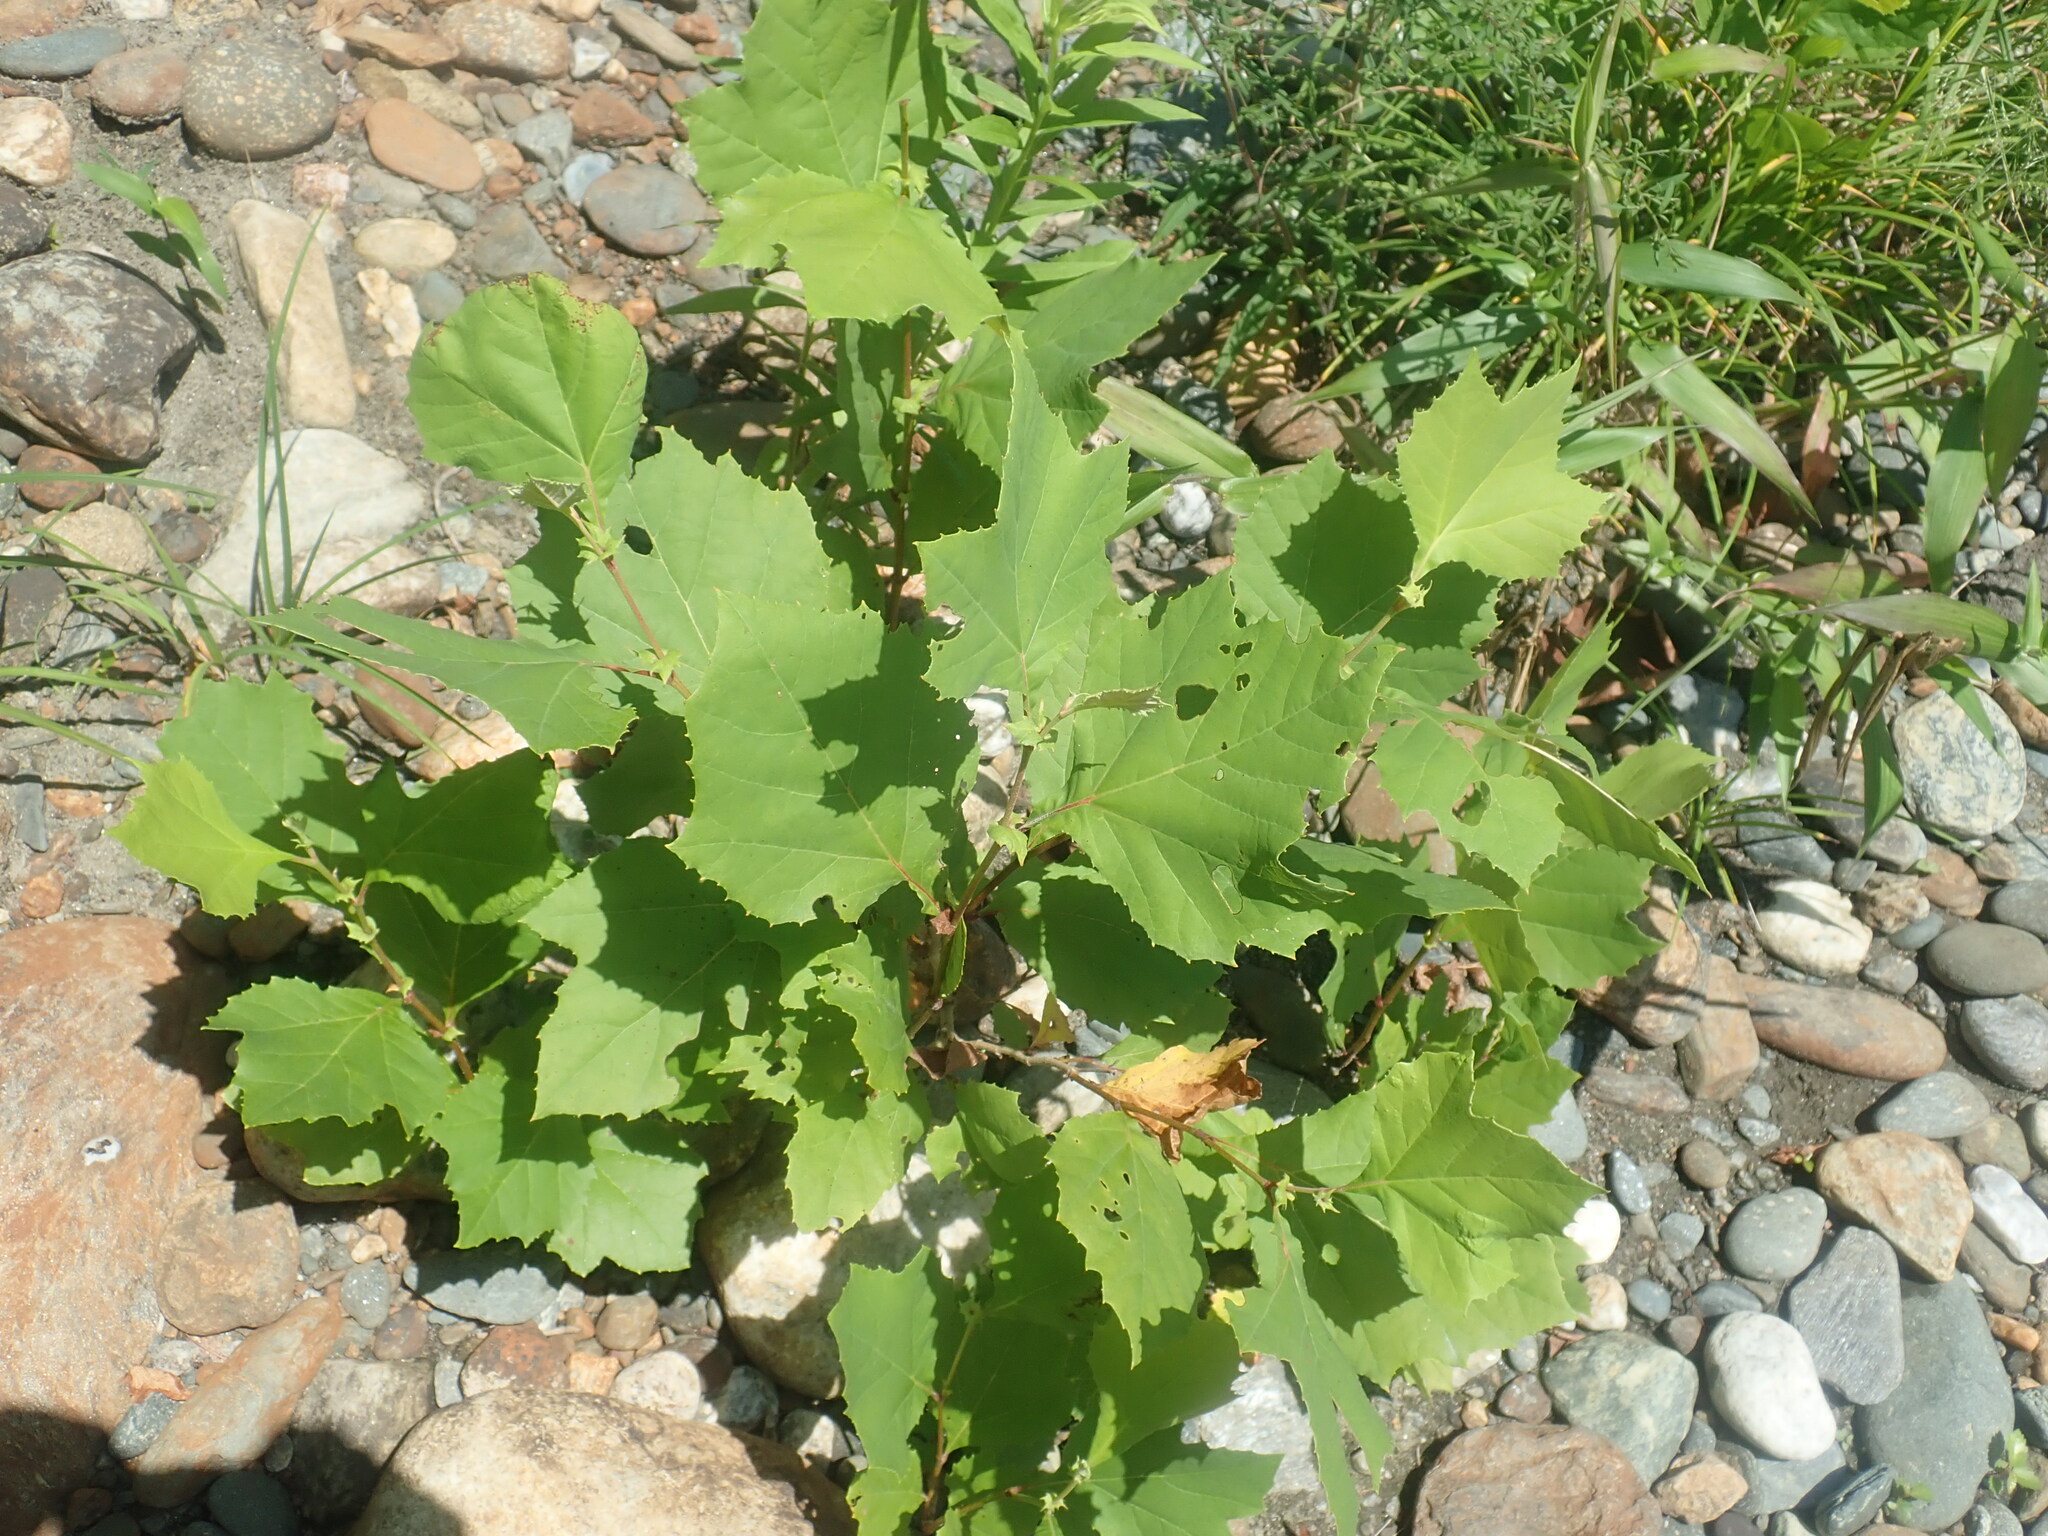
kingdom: Plantae
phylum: Tracheophyta
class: Magnoliopsida
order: Proteales
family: Platanaceae
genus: Platanus
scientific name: Platanus occidentalis
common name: American sycamore
